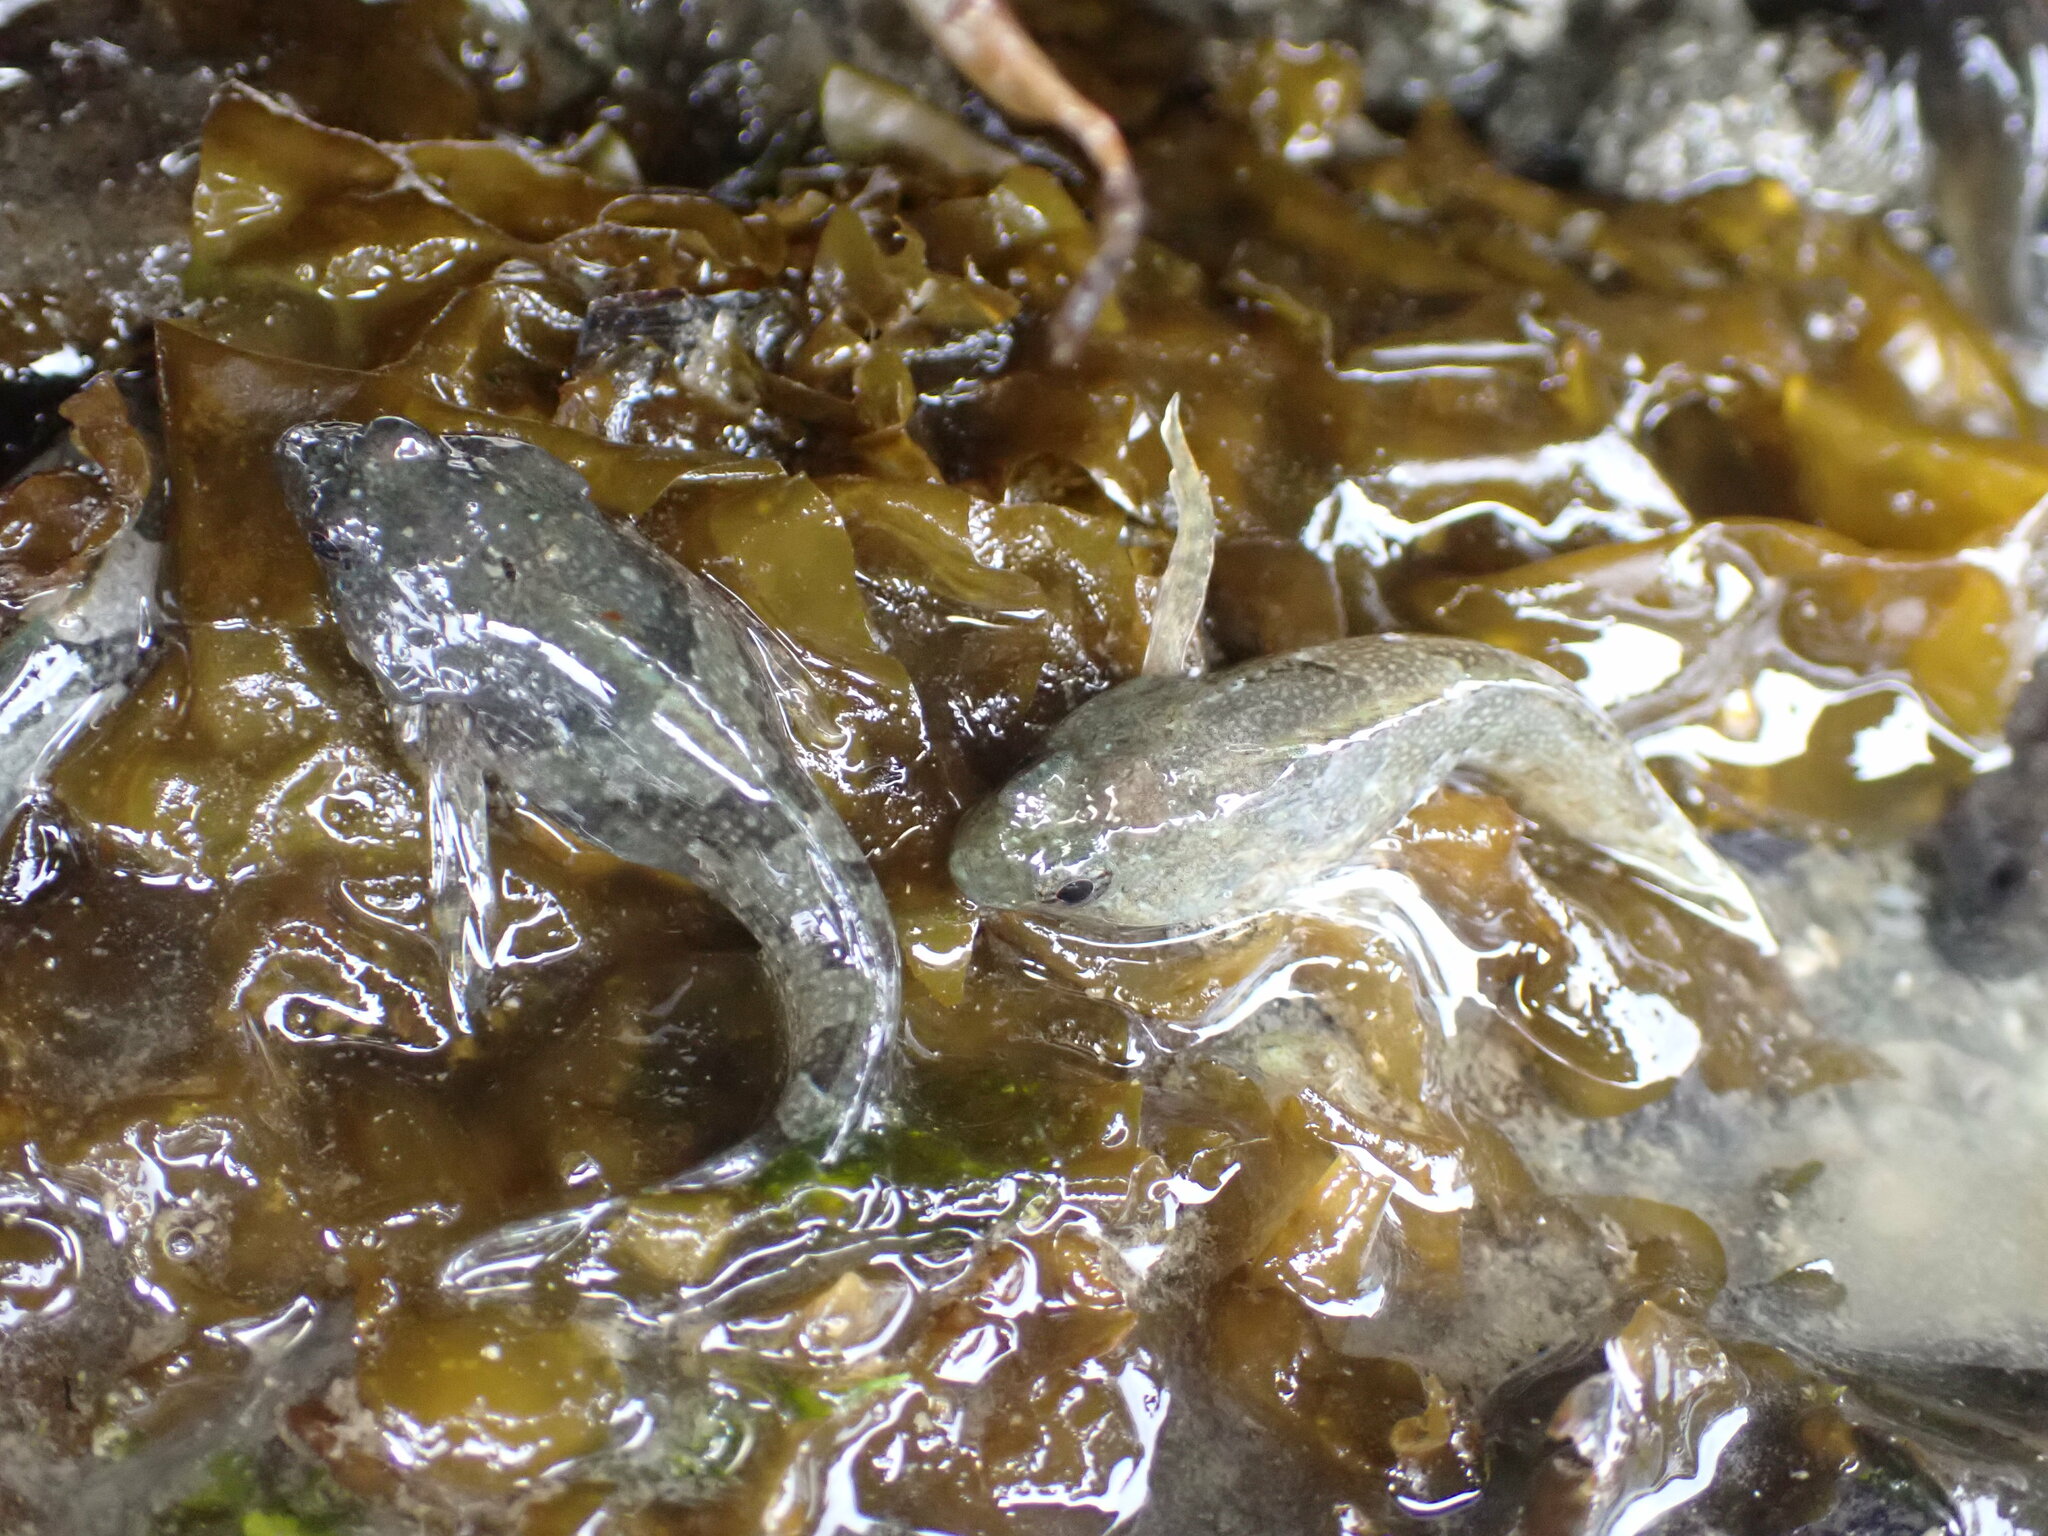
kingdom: Animalia
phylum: Chordata
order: Scorpaeniformes
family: Cottidae
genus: Oligocottus
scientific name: Oligocottus maculosus
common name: Tidepool sculpin
